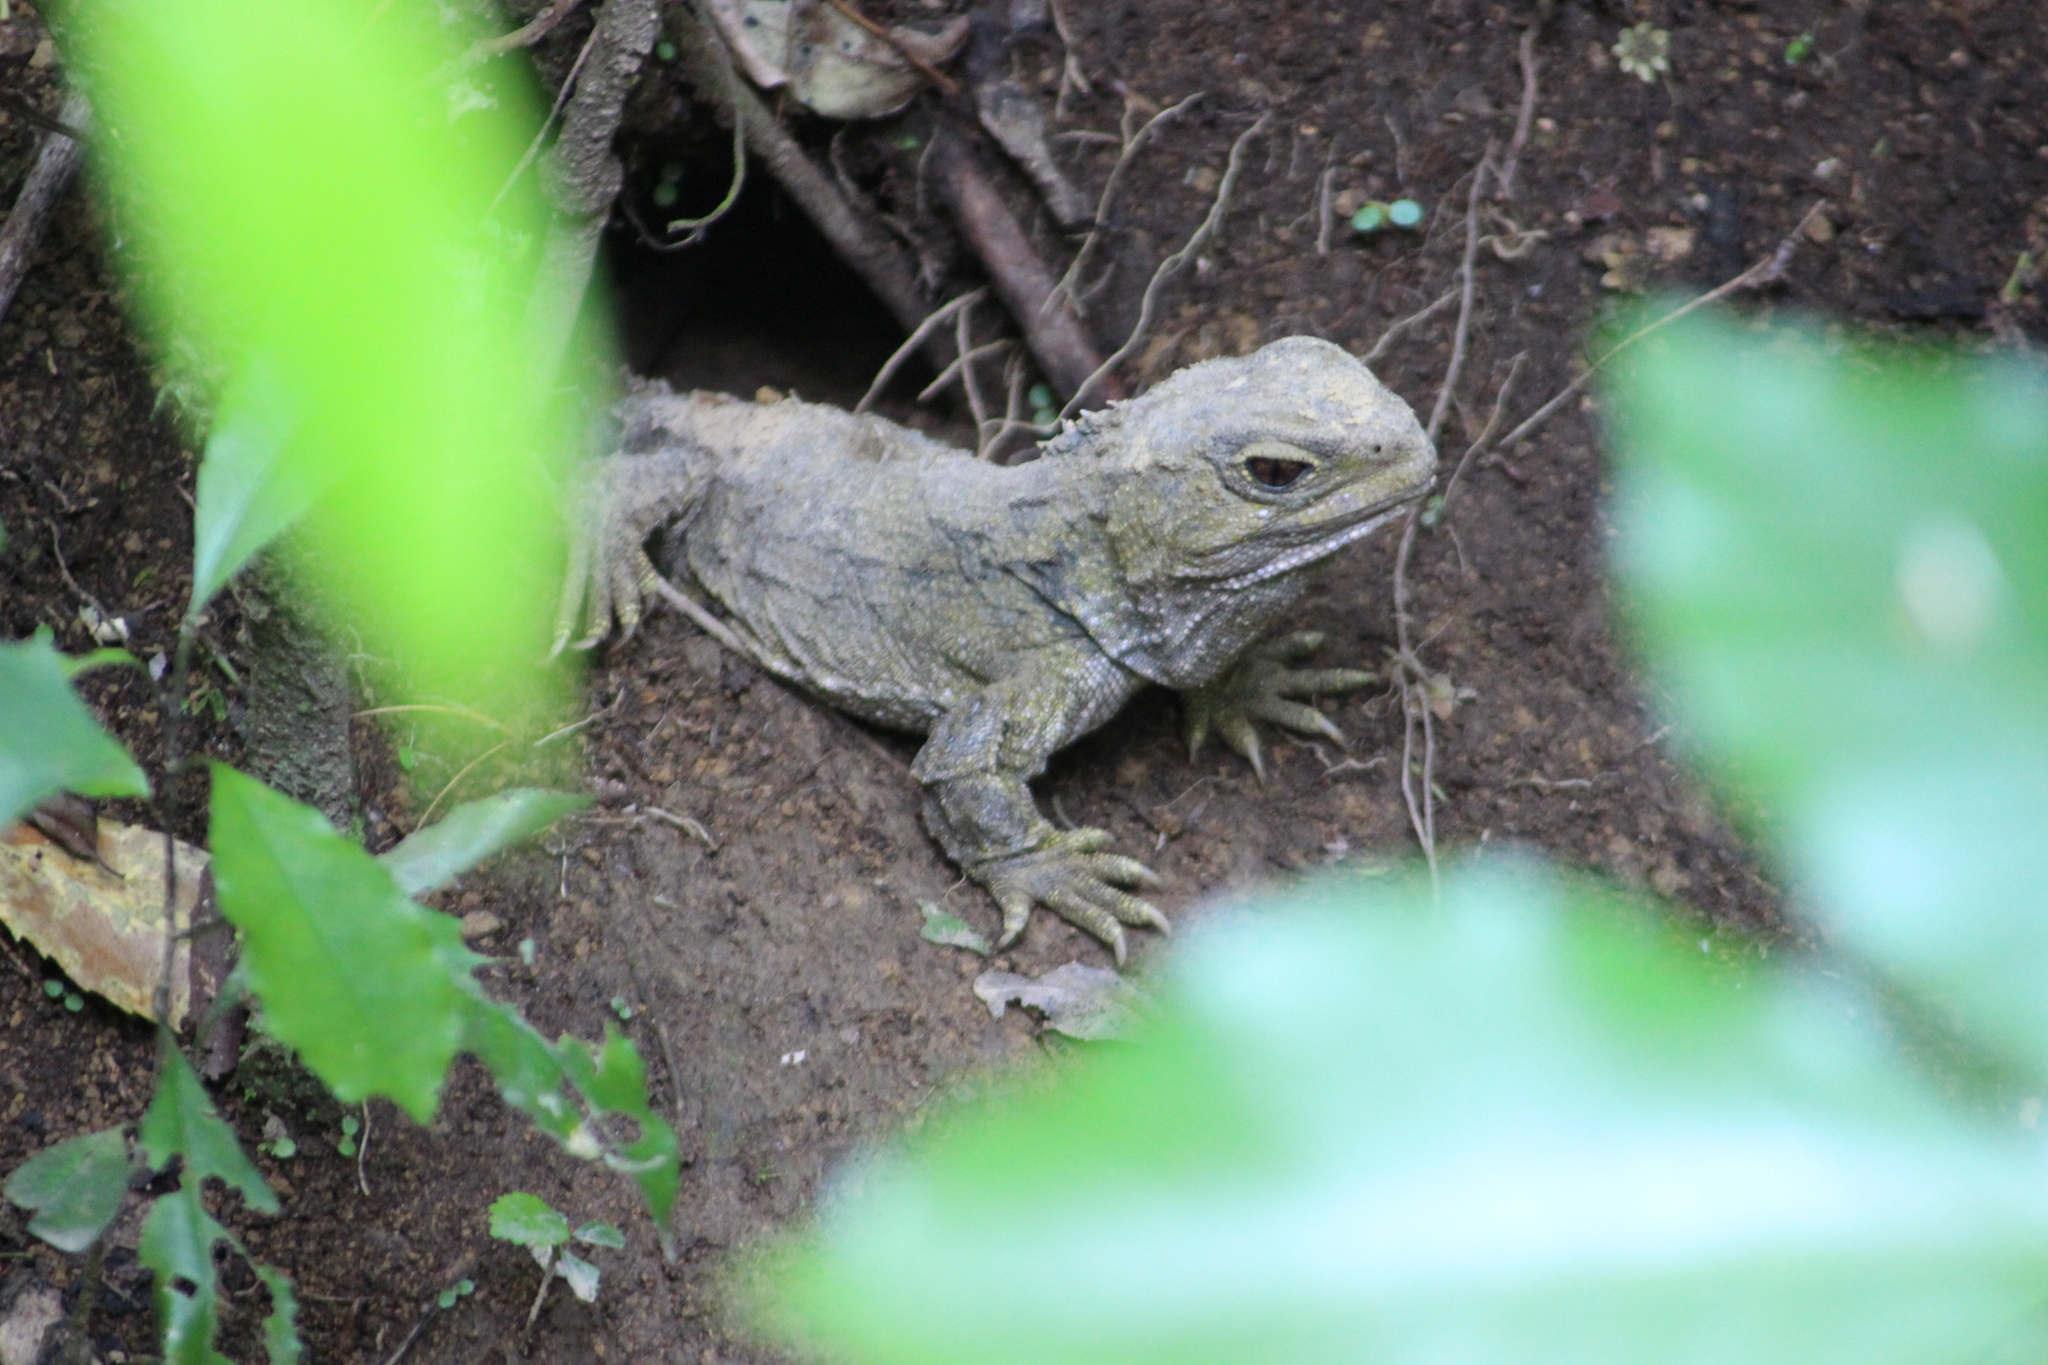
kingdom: Animalia
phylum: Chordata
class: Sphenodontia
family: Sphenodontidae
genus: Sphenodon
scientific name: Sphenodon punctatus
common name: Tuatara
